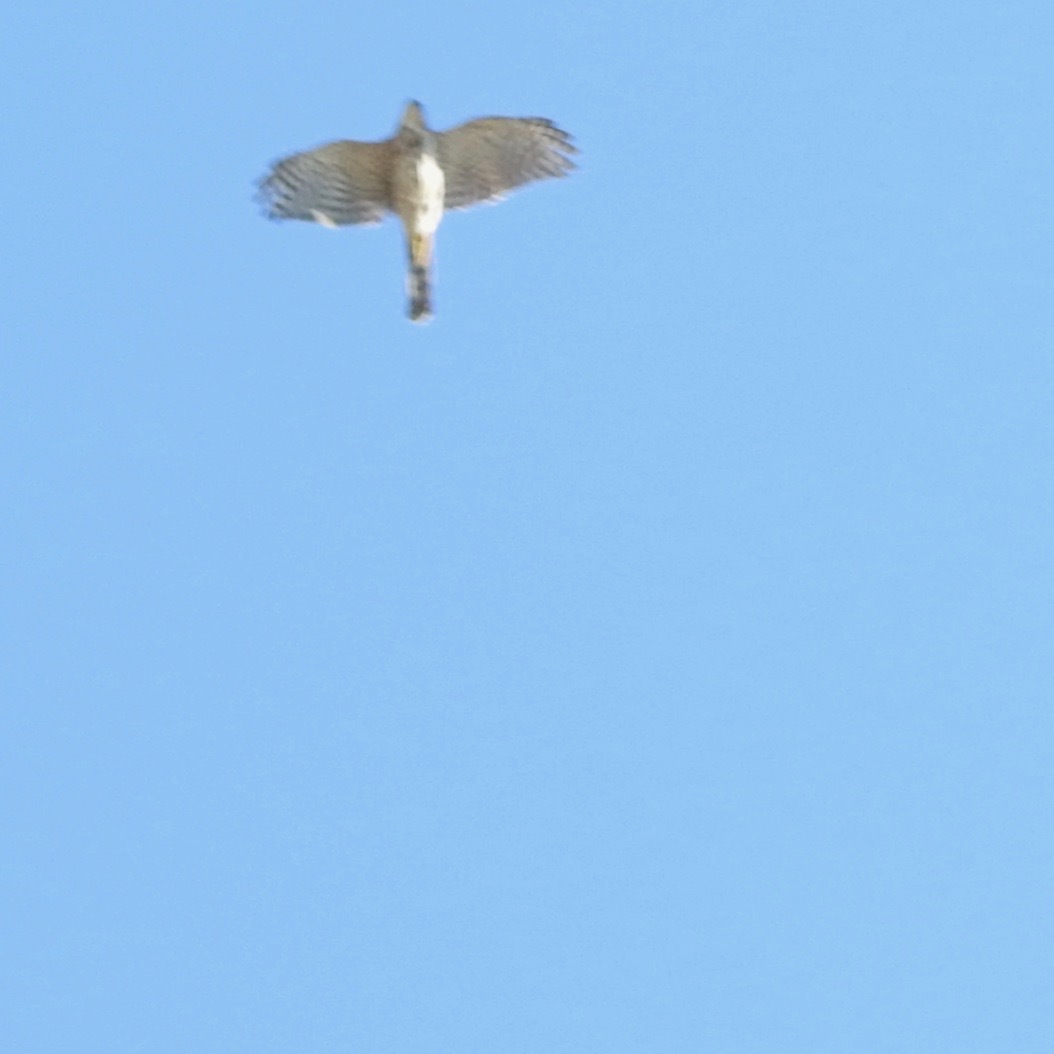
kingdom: Animalia
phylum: Chordata
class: Aves
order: Accipitriformes
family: Accipitridae
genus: Accipiter
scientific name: Accipiter cooperii
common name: Cooper's hawk
